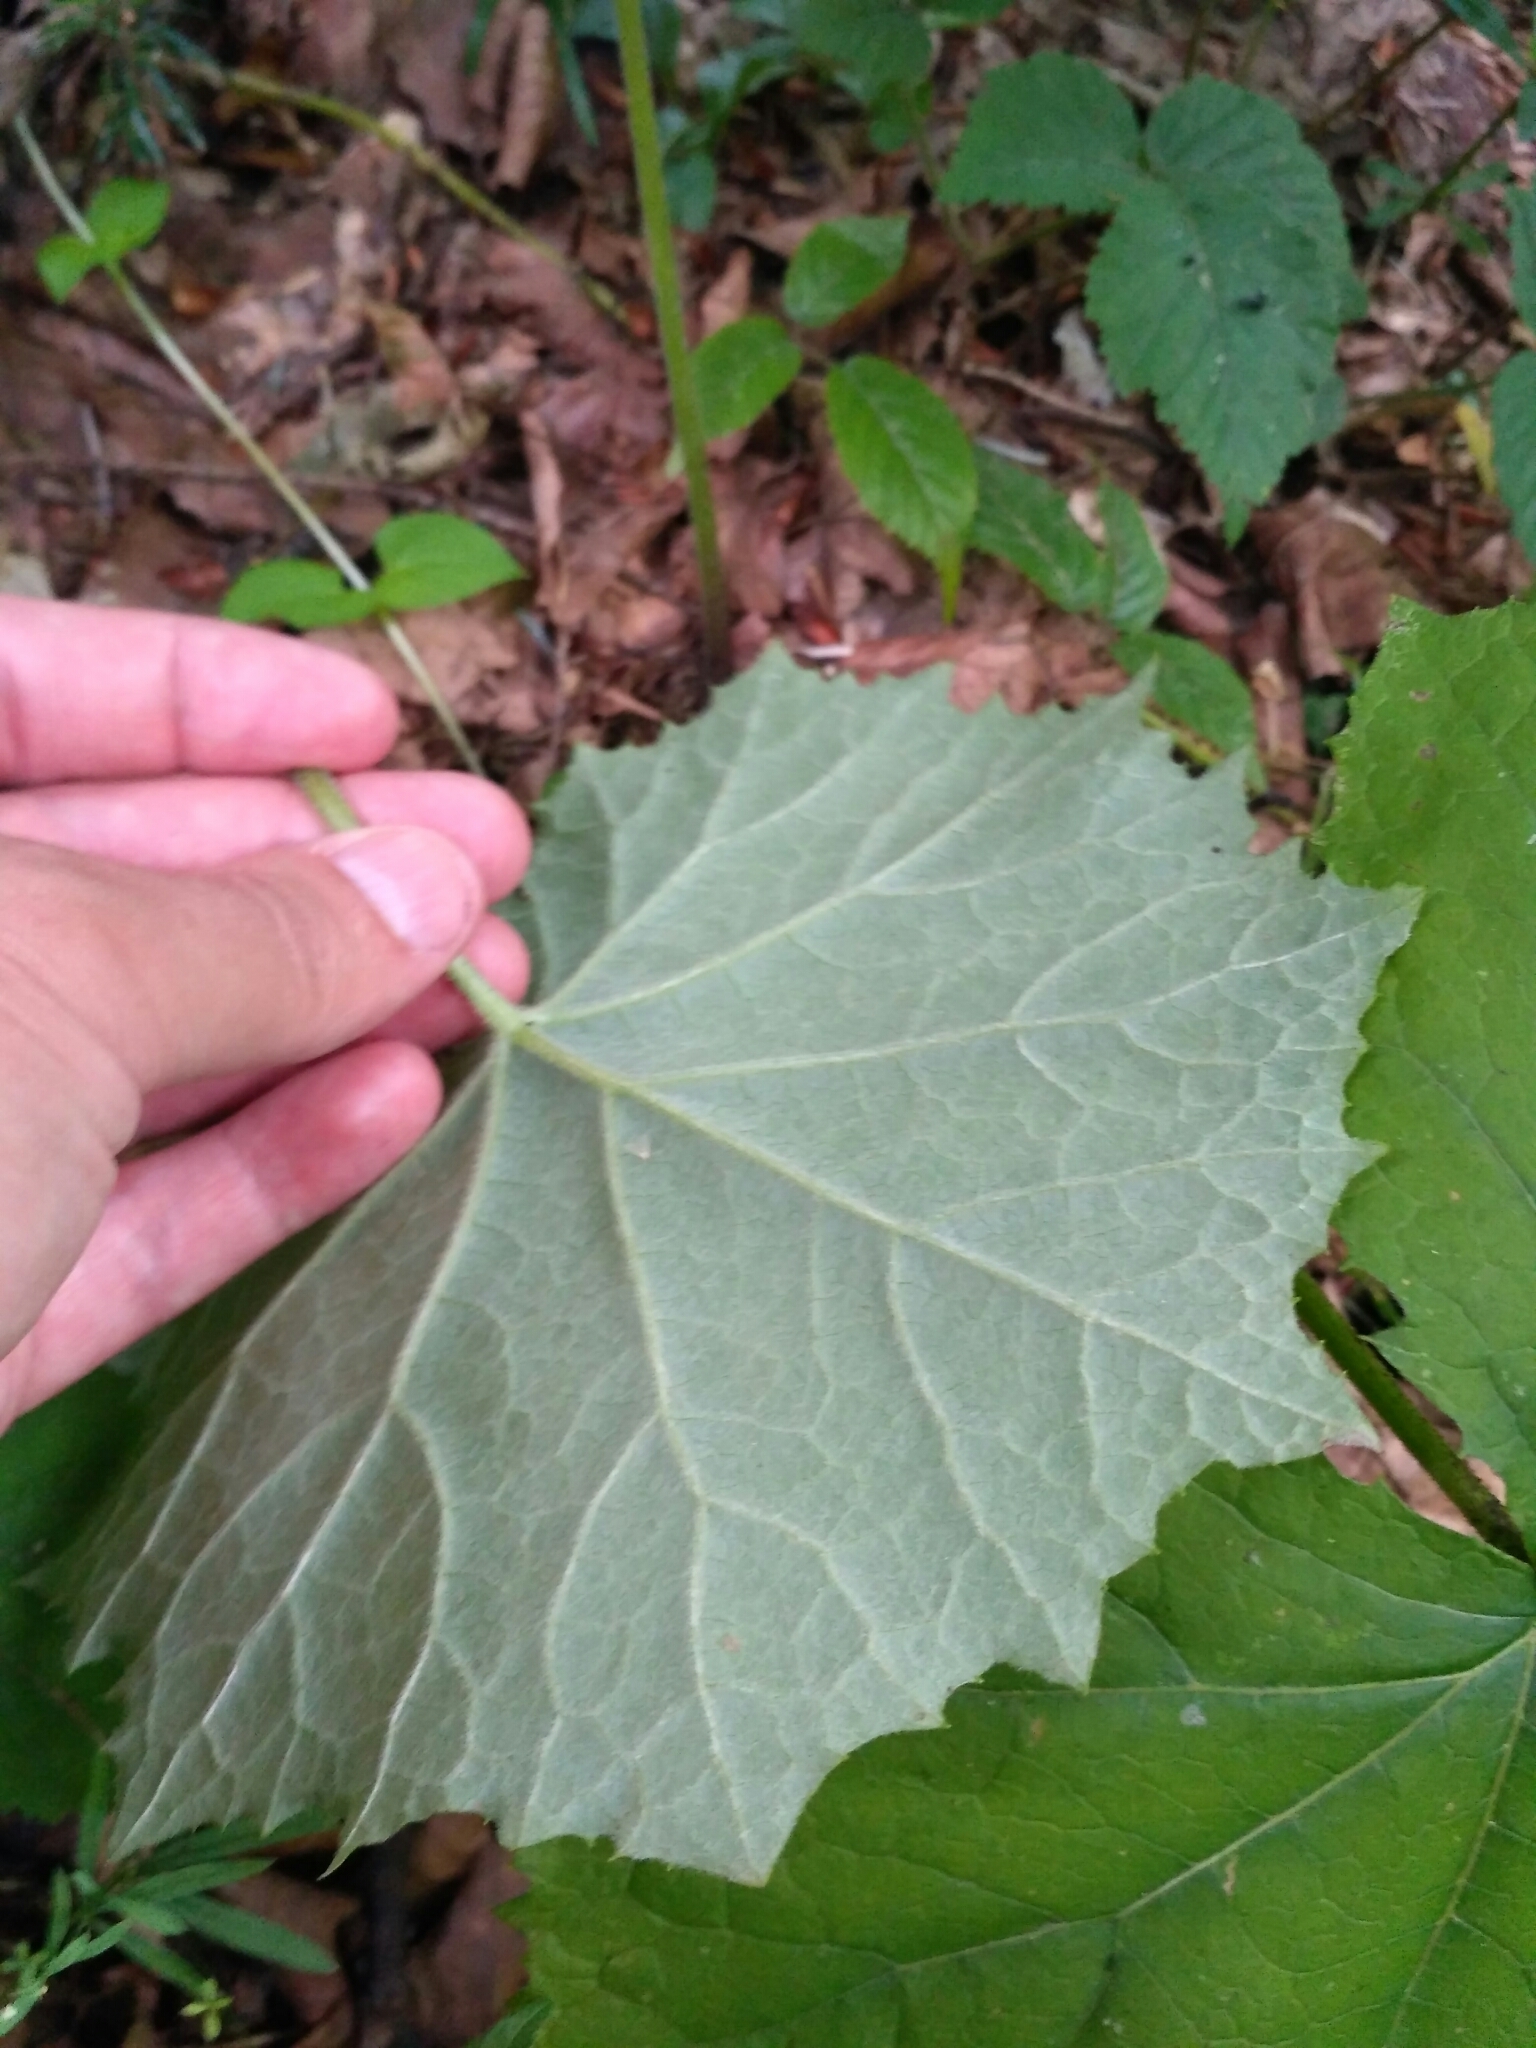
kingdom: Plantae
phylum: Tracheophyta
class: Magnoliopsida
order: Asterales
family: Asteraceae
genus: Tussilago
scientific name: Tussilago farfara
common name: Coltsfoot
